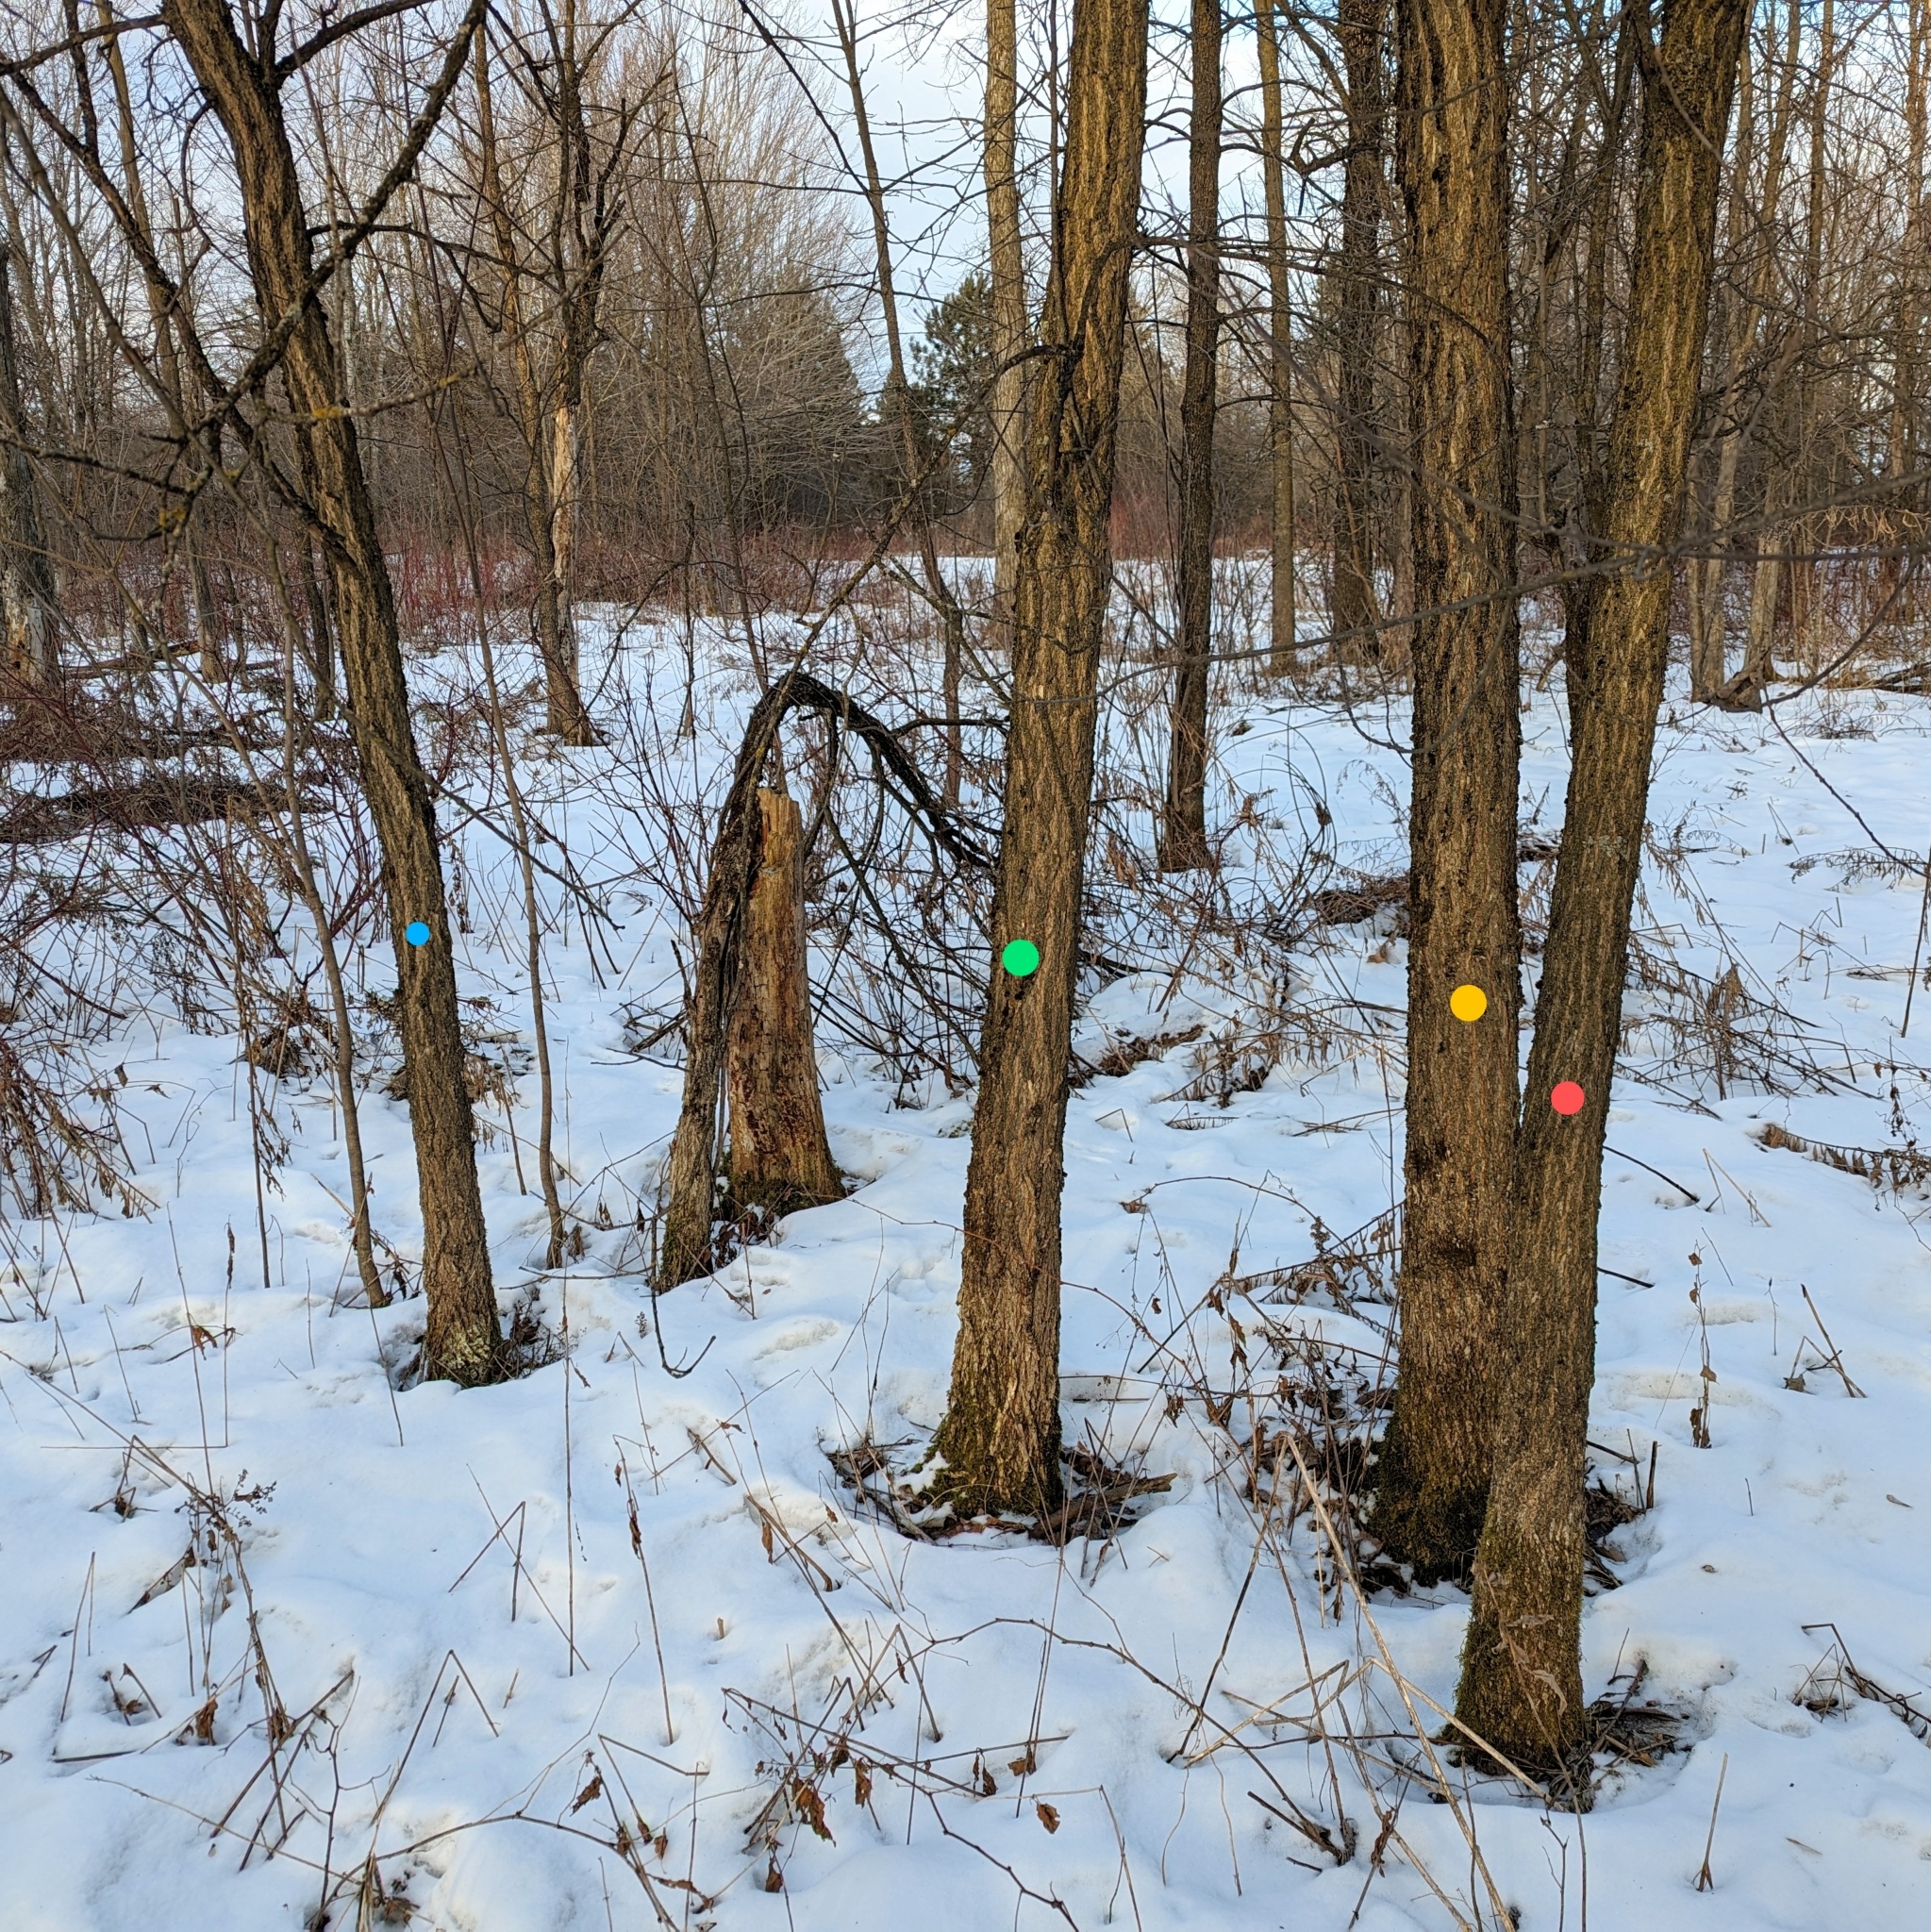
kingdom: Plantae
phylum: Tracheophyta
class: Magnoliopsida
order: Rosales
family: Ulmaceae
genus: Ulmus
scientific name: Ulmus americana
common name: American elm
